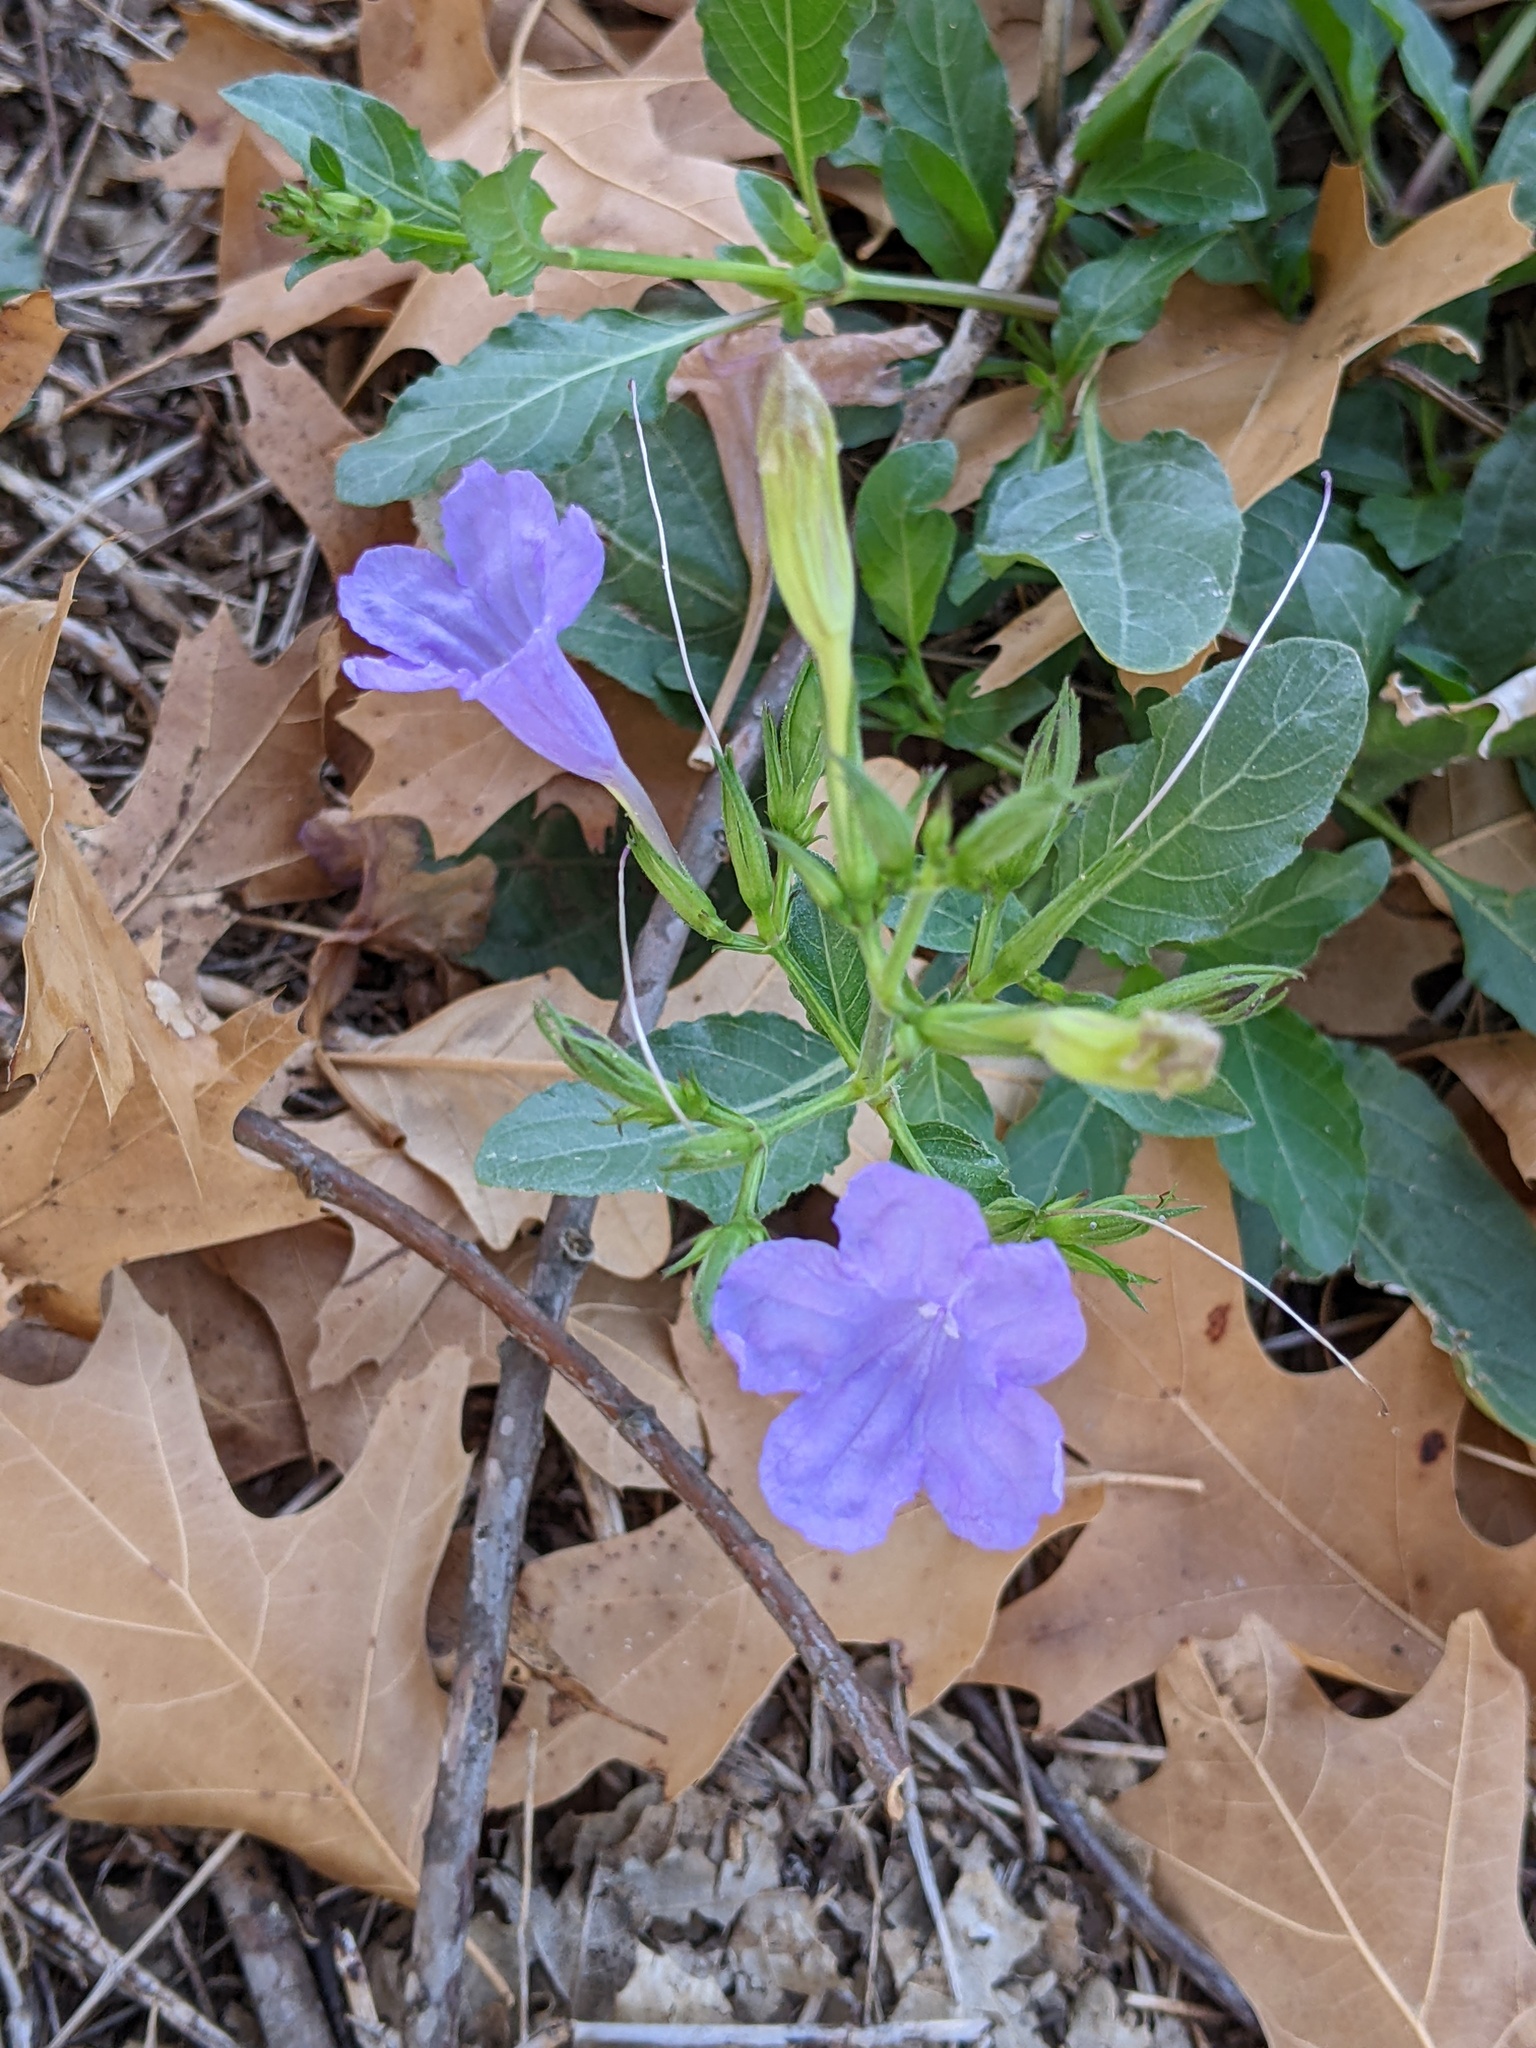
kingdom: Plantae
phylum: Tracheophyta
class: Magnoliopsida
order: Lamiales
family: Acanthaceae
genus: Ruellia
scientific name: Ruellia ciliatiflora
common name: Hairyflower wild petunia
